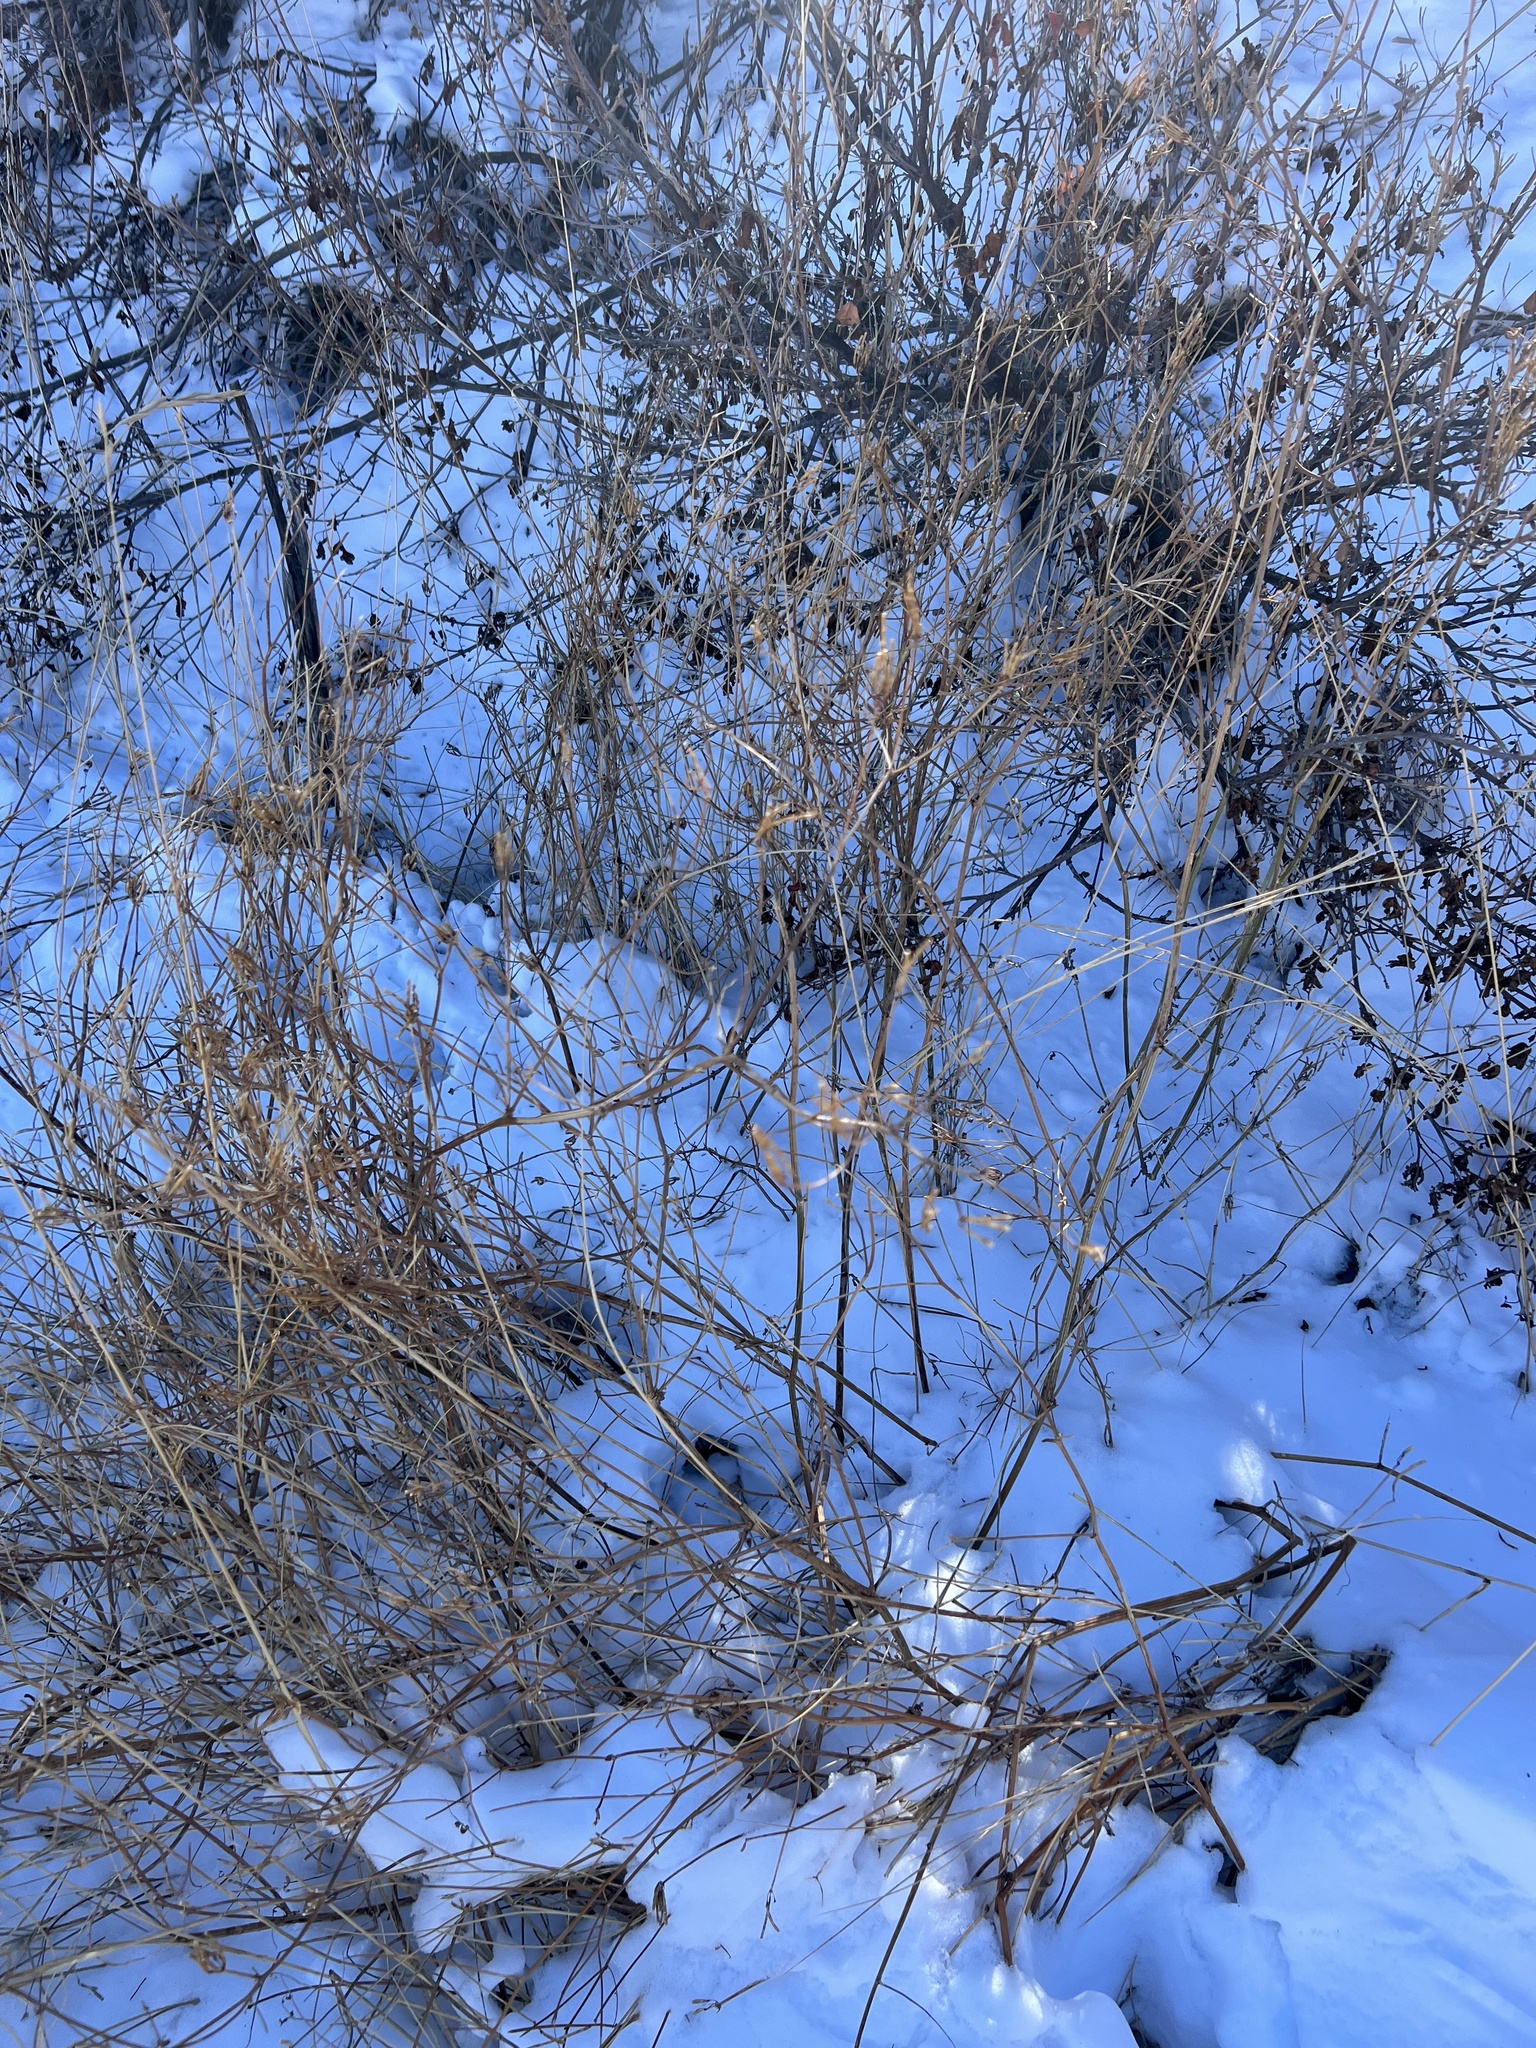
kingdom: Plantae
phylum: Tracheophyta
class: Magnoliopsida
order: Fabales
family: Fabaceae
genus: Coronilla
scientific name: Coronilla varia
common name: Crownvetch
